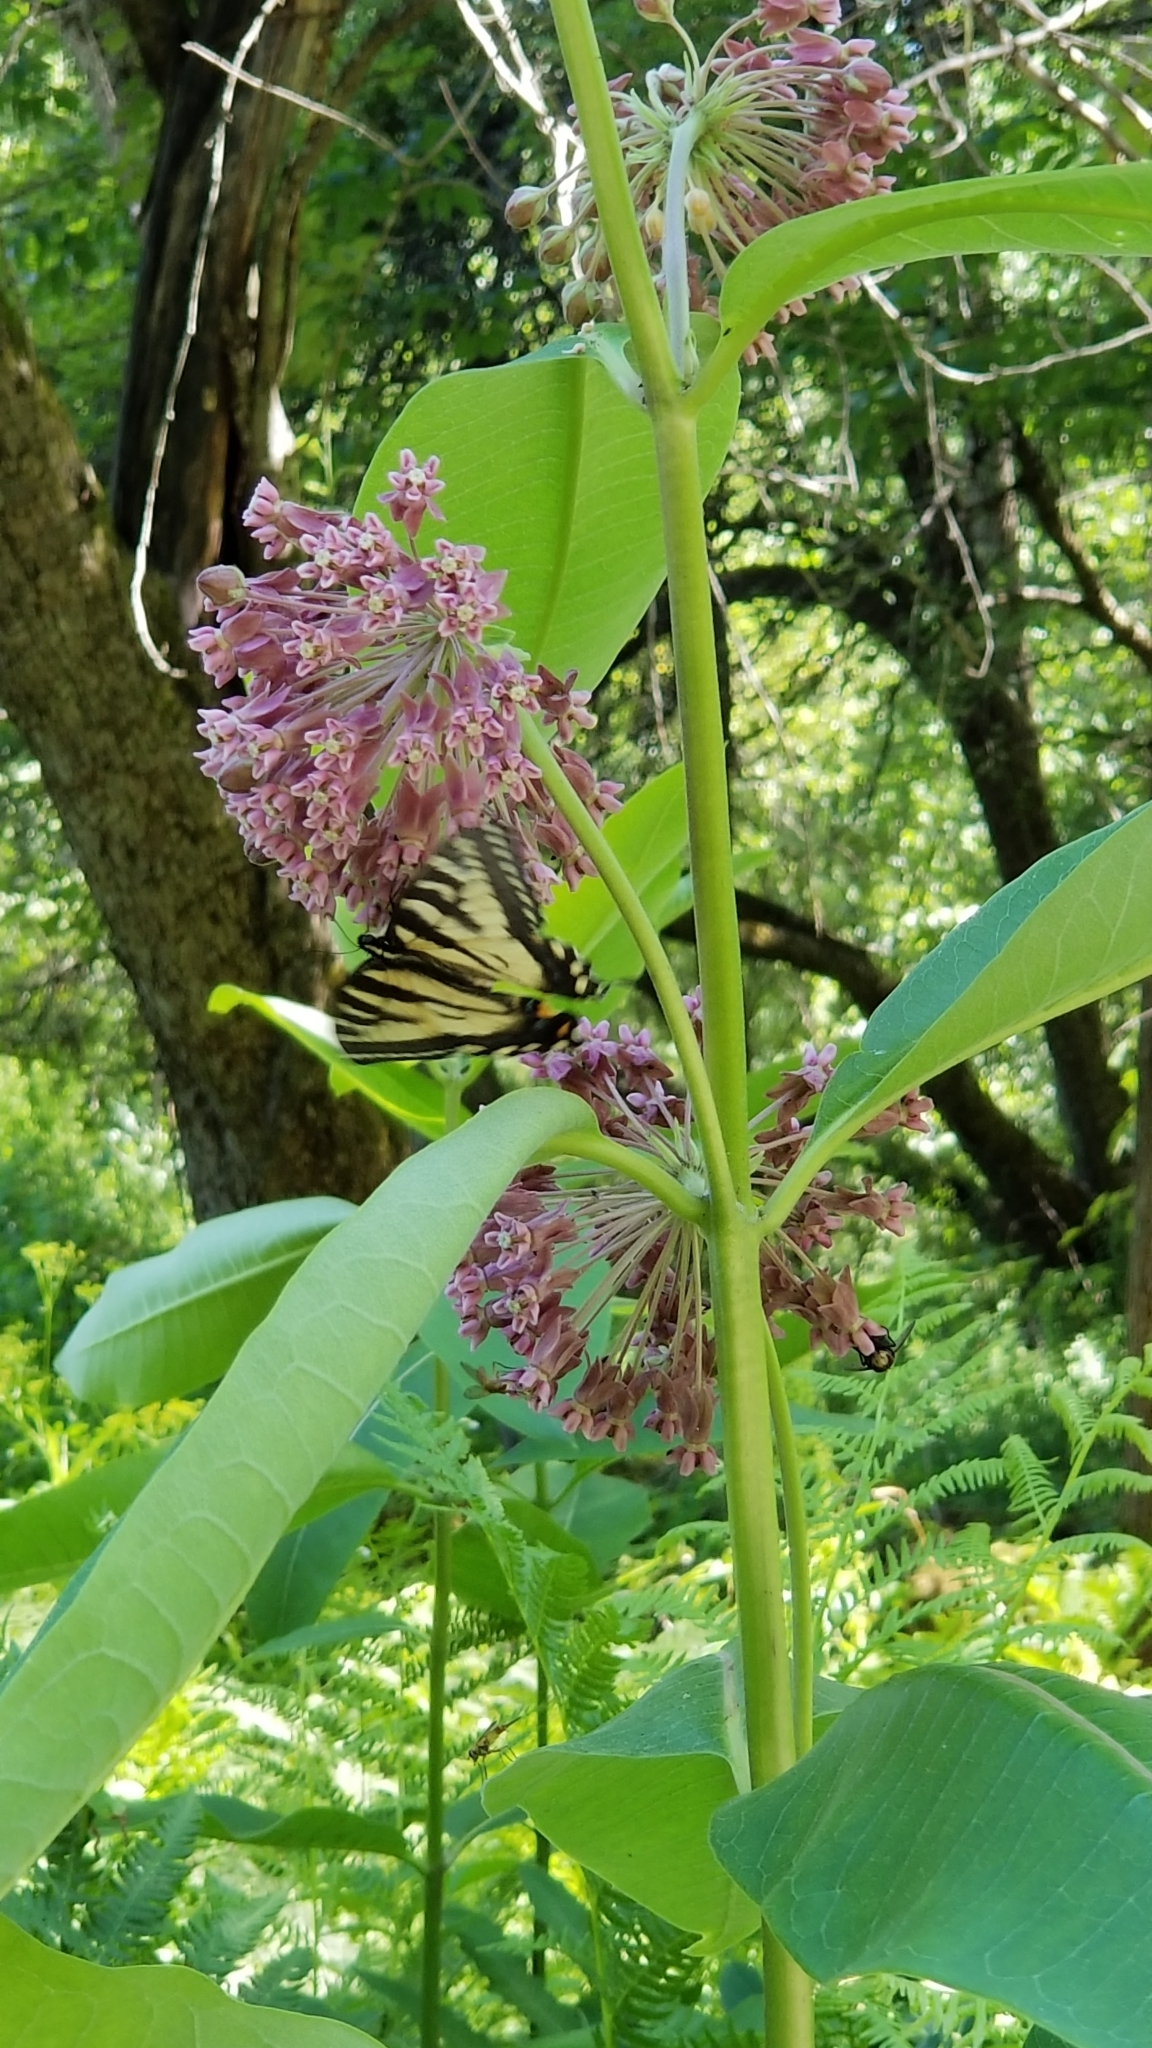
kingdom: Plantae
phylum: Tracheophyta
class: Magnoliopsida
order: Gentianales
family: Apocynaceae
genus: Asclepias
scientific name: Asclepias syriaca
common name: Common milkweed
